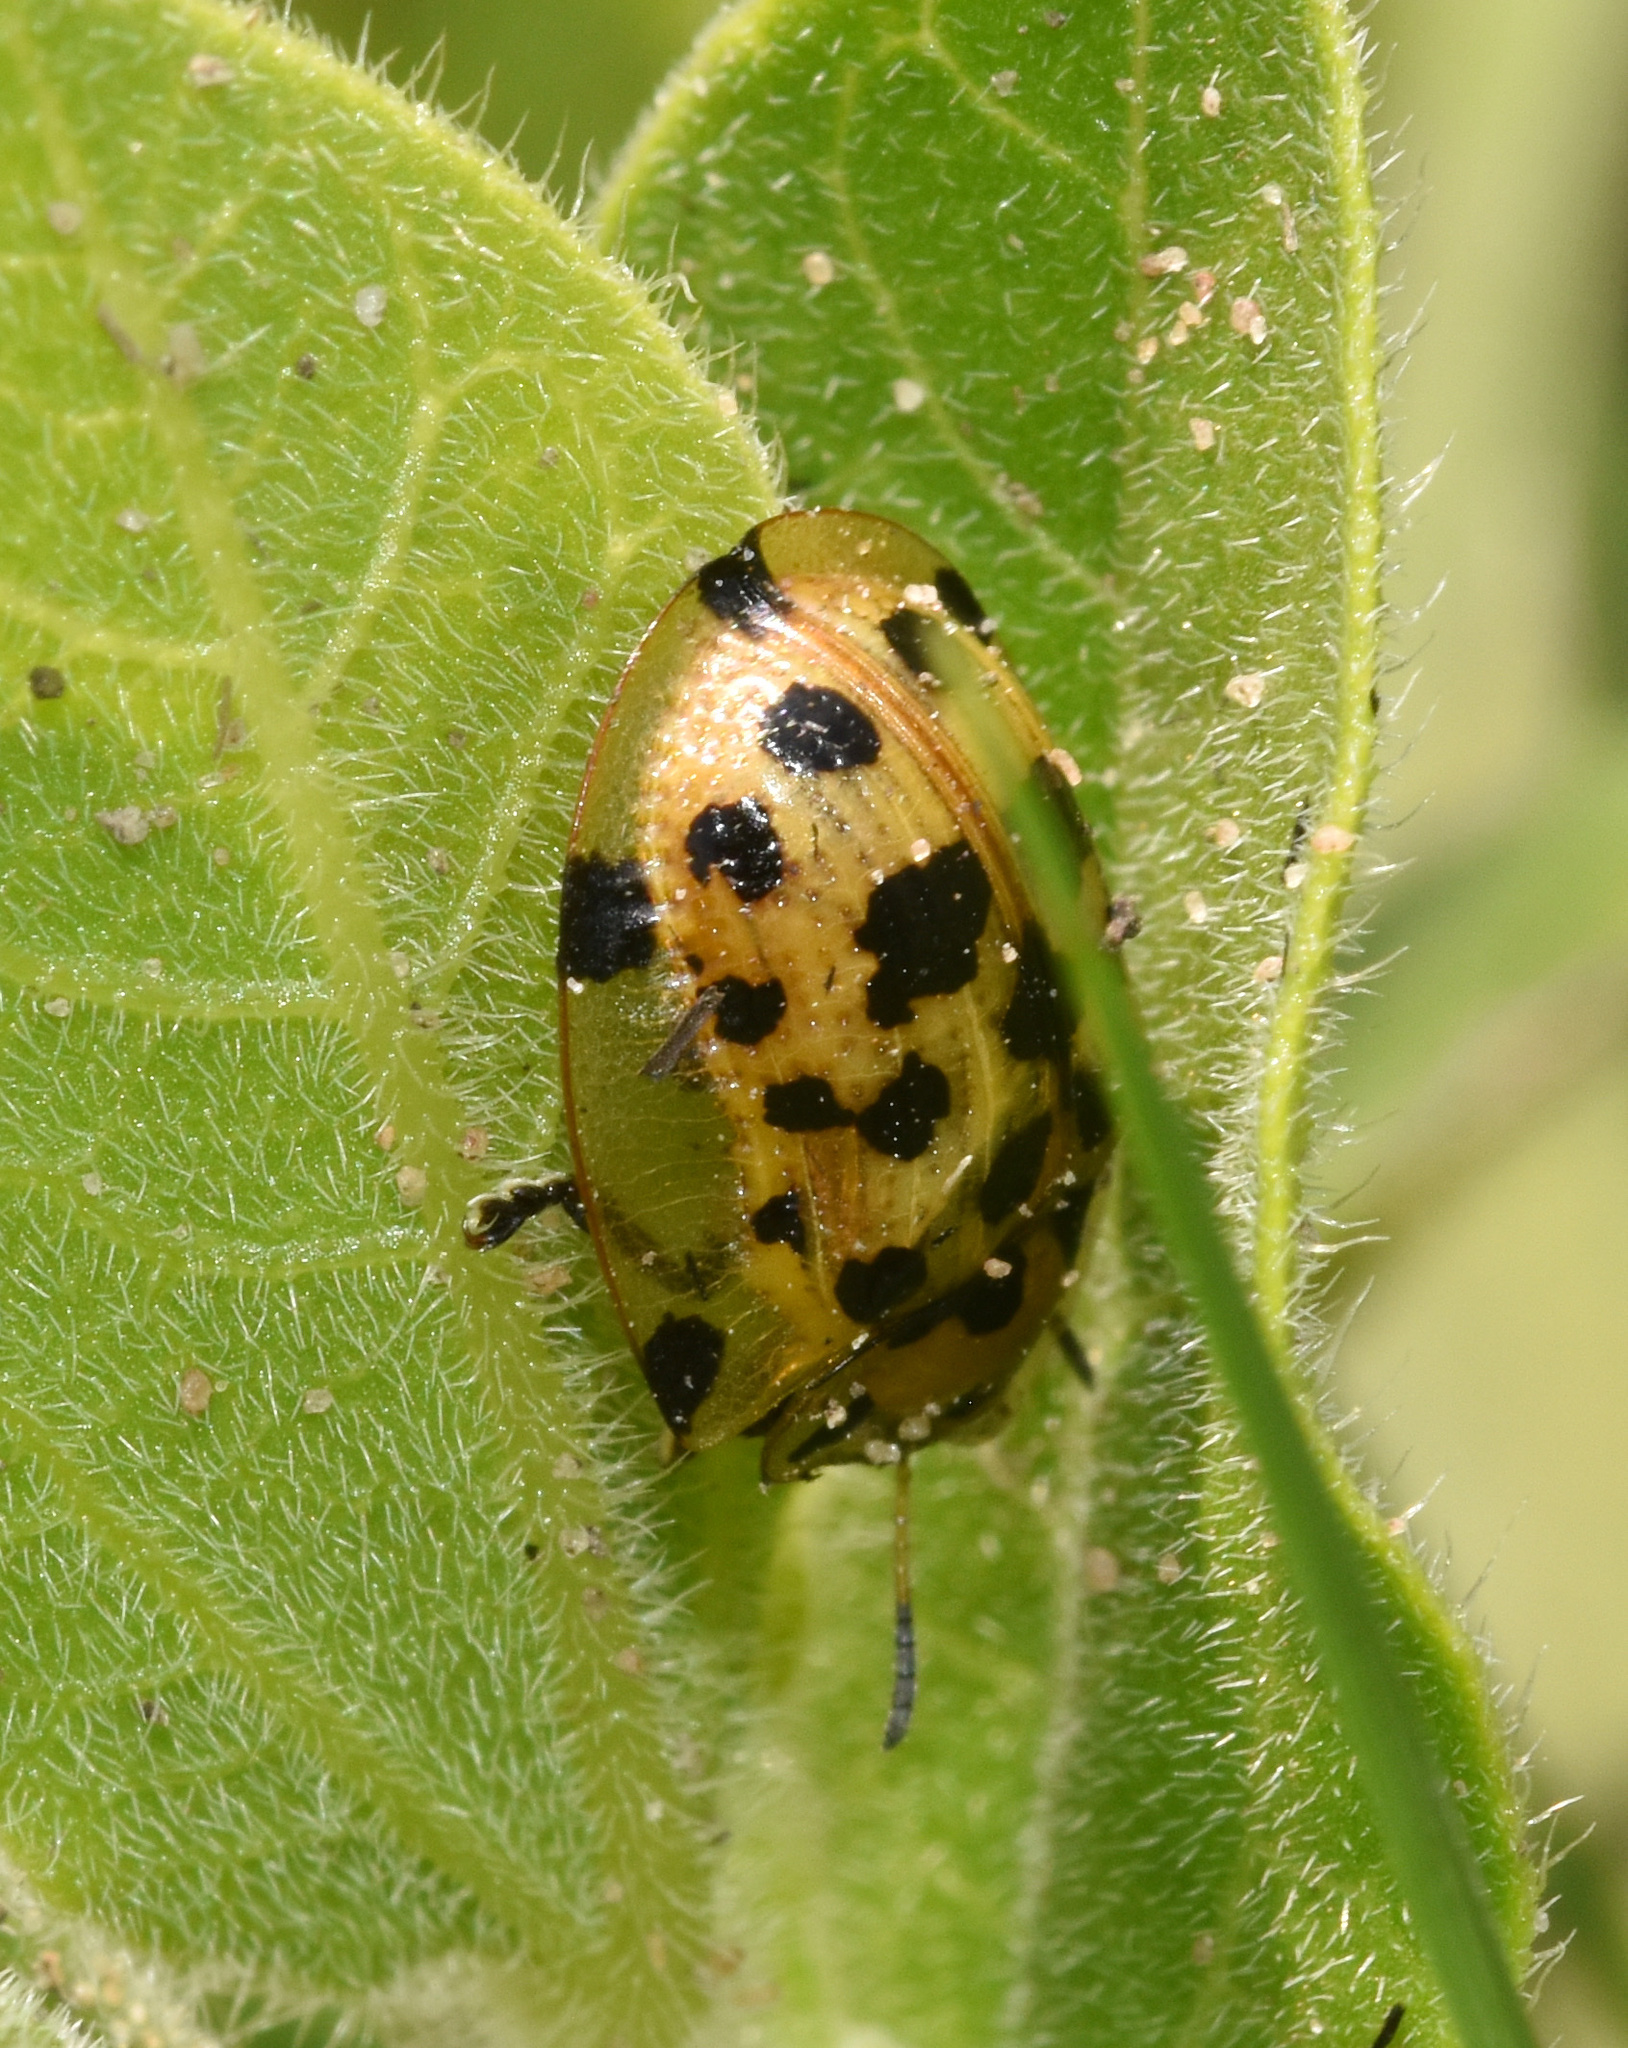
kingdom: Animalia
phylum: Arthropoda
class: Insecta
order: Coleoptera
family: Chrysomelidae
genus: Aethiopocassis
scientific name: Aethiopocassis vigintimaculata
